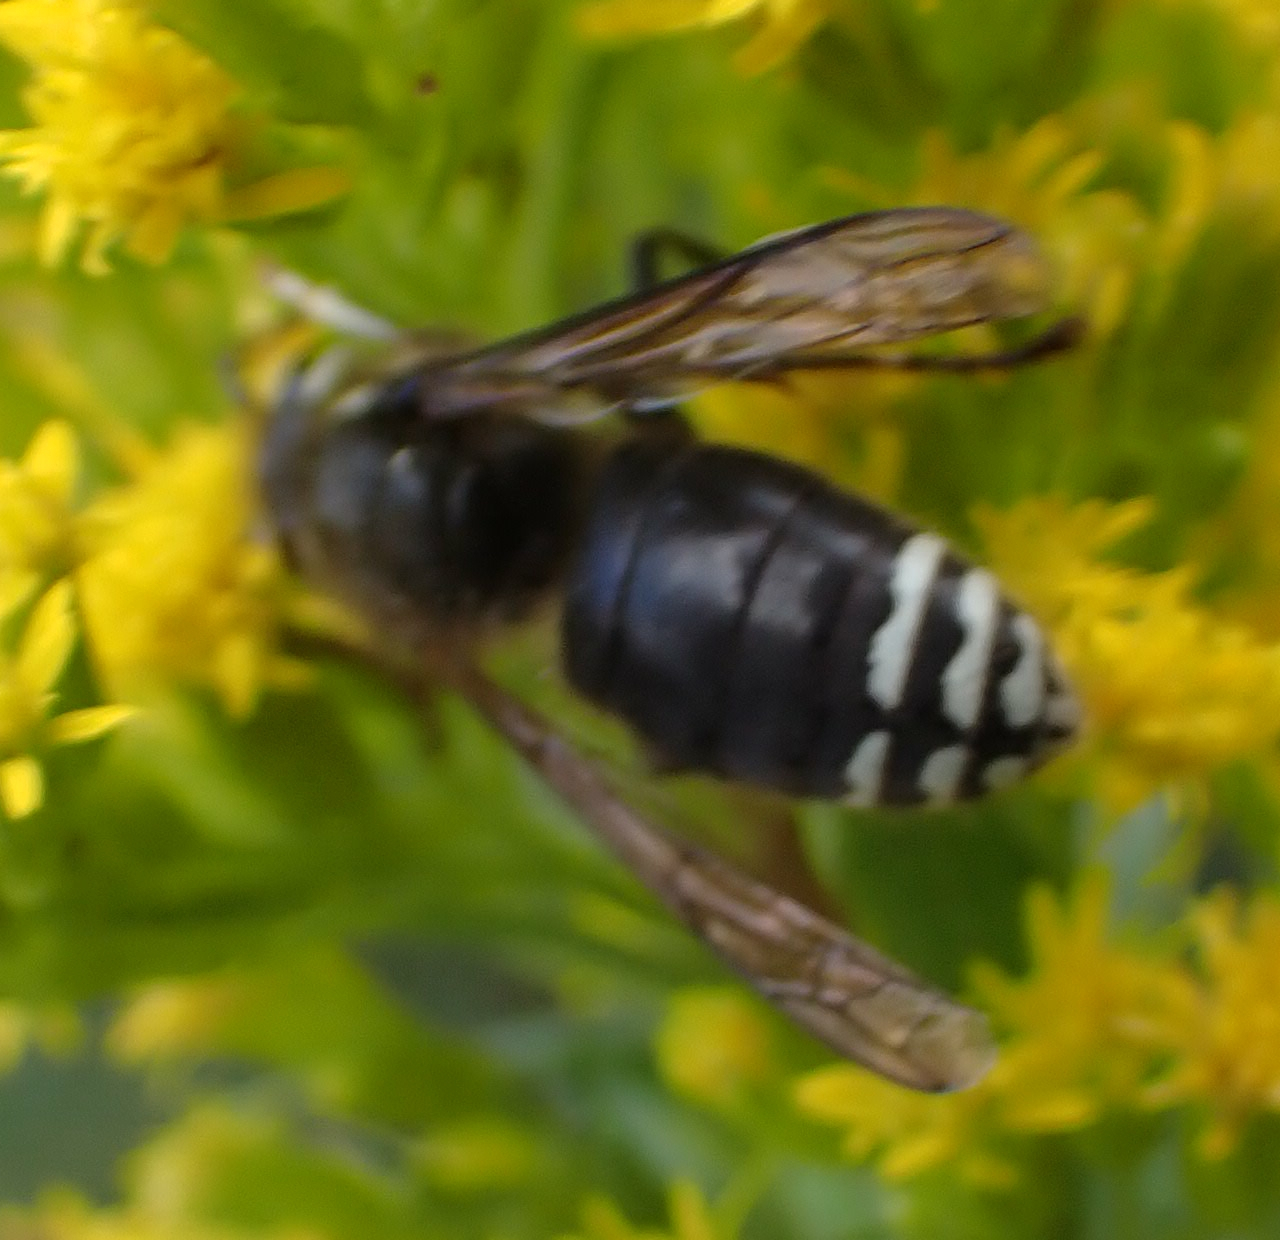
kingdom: Animalia
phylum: Arthropoda
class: Insecta
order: Hymenoptera
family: Vespidae
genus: Dolichovespula
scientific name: Dolichovespula maculata
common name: Bald-faced hornet
